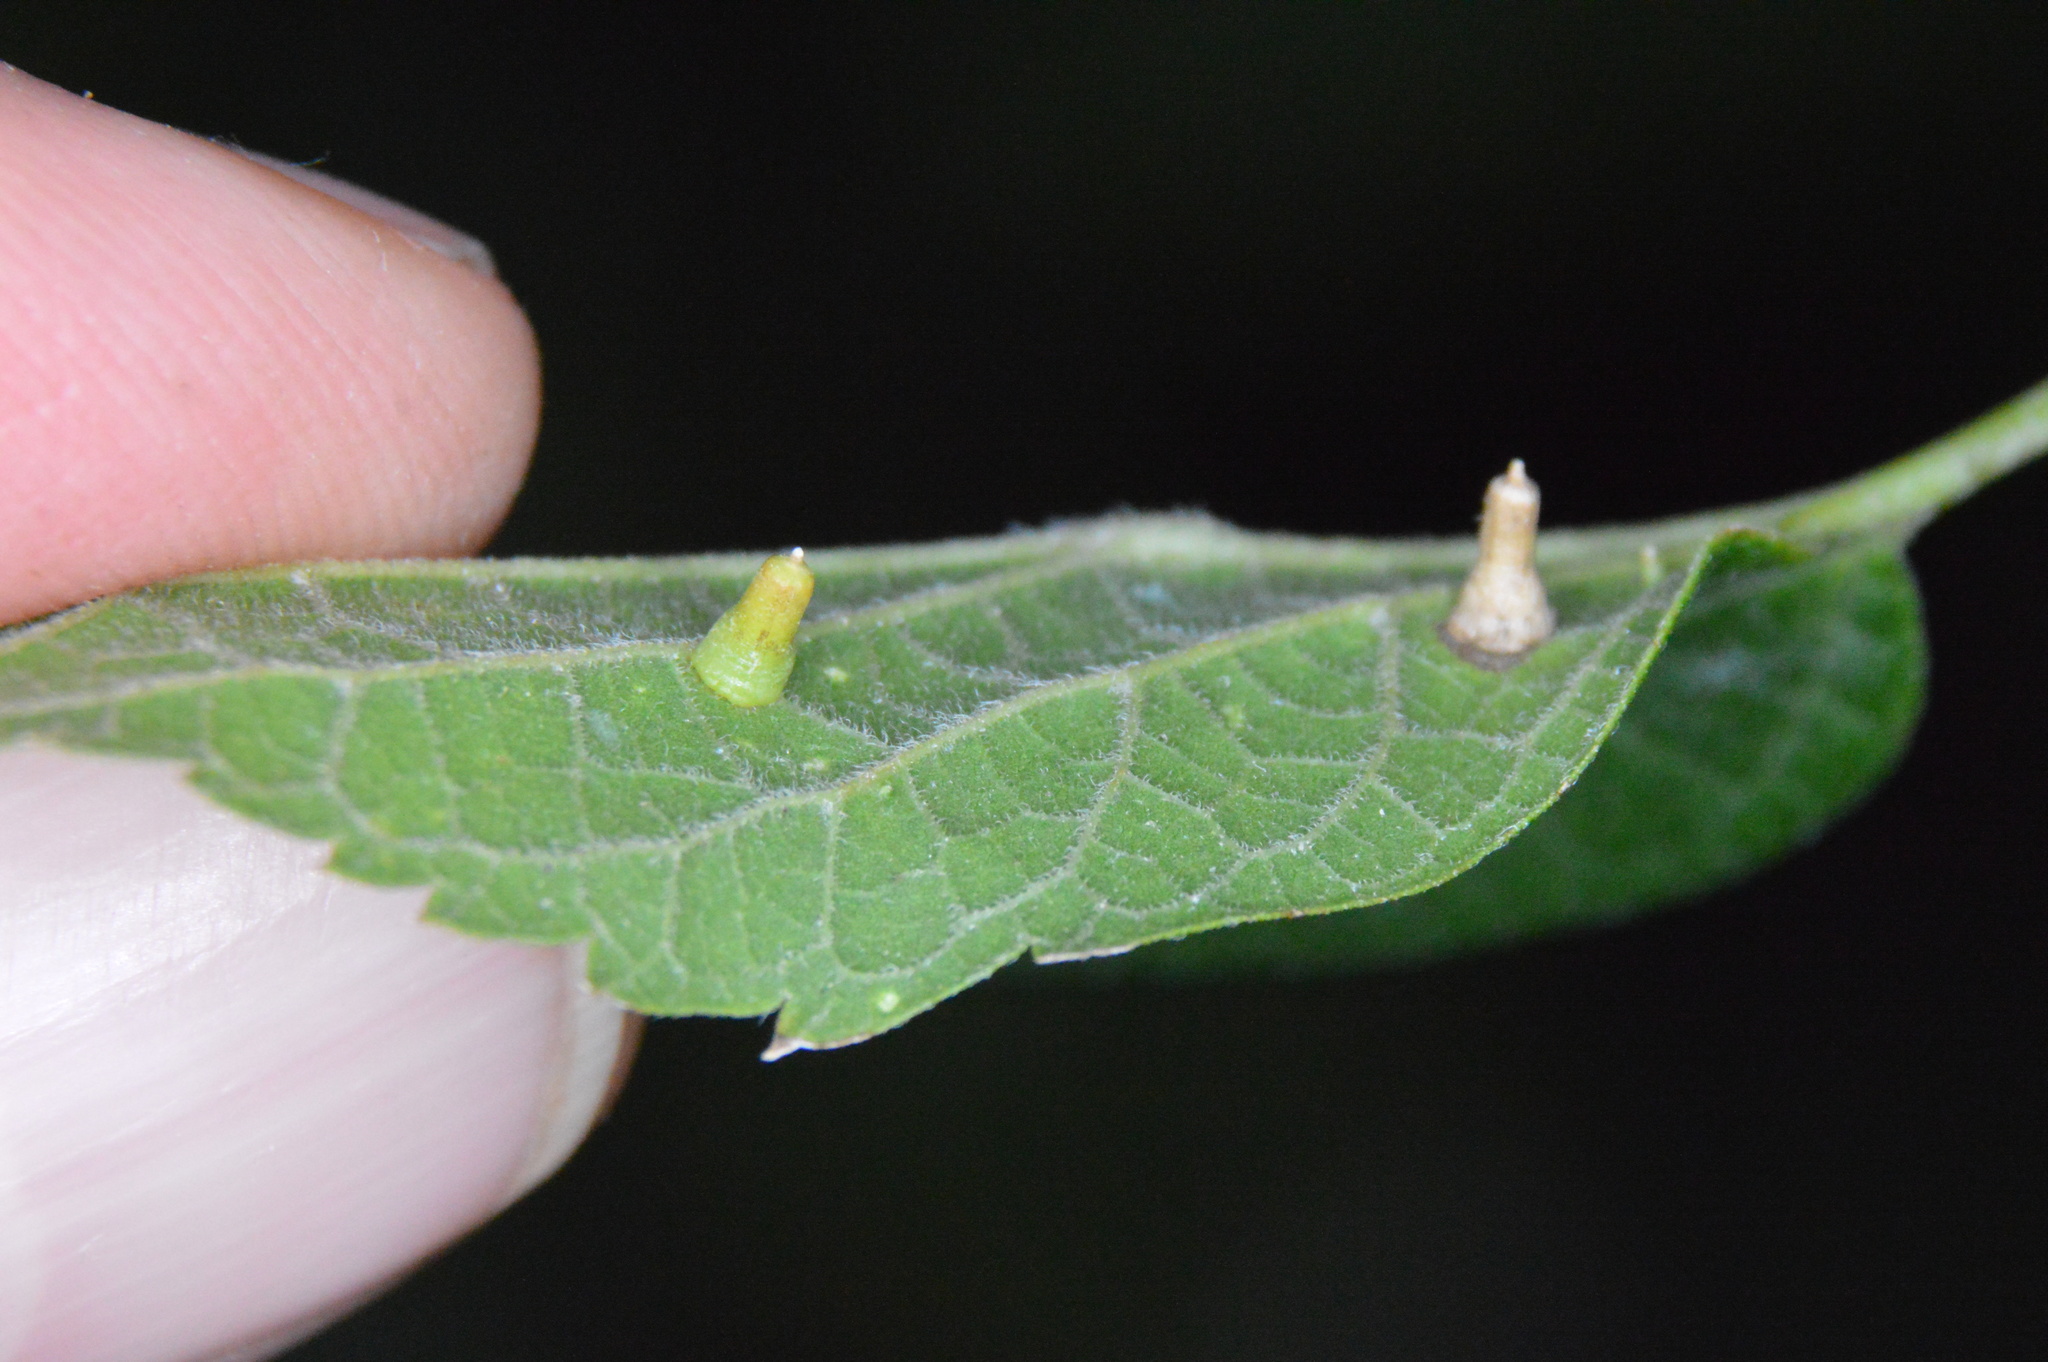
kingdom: Animalia
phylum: Arthropoda
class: Insecta
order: Diptera
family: Cecidomyiidae
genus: Celticecis
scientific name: Celticecis aciculata
